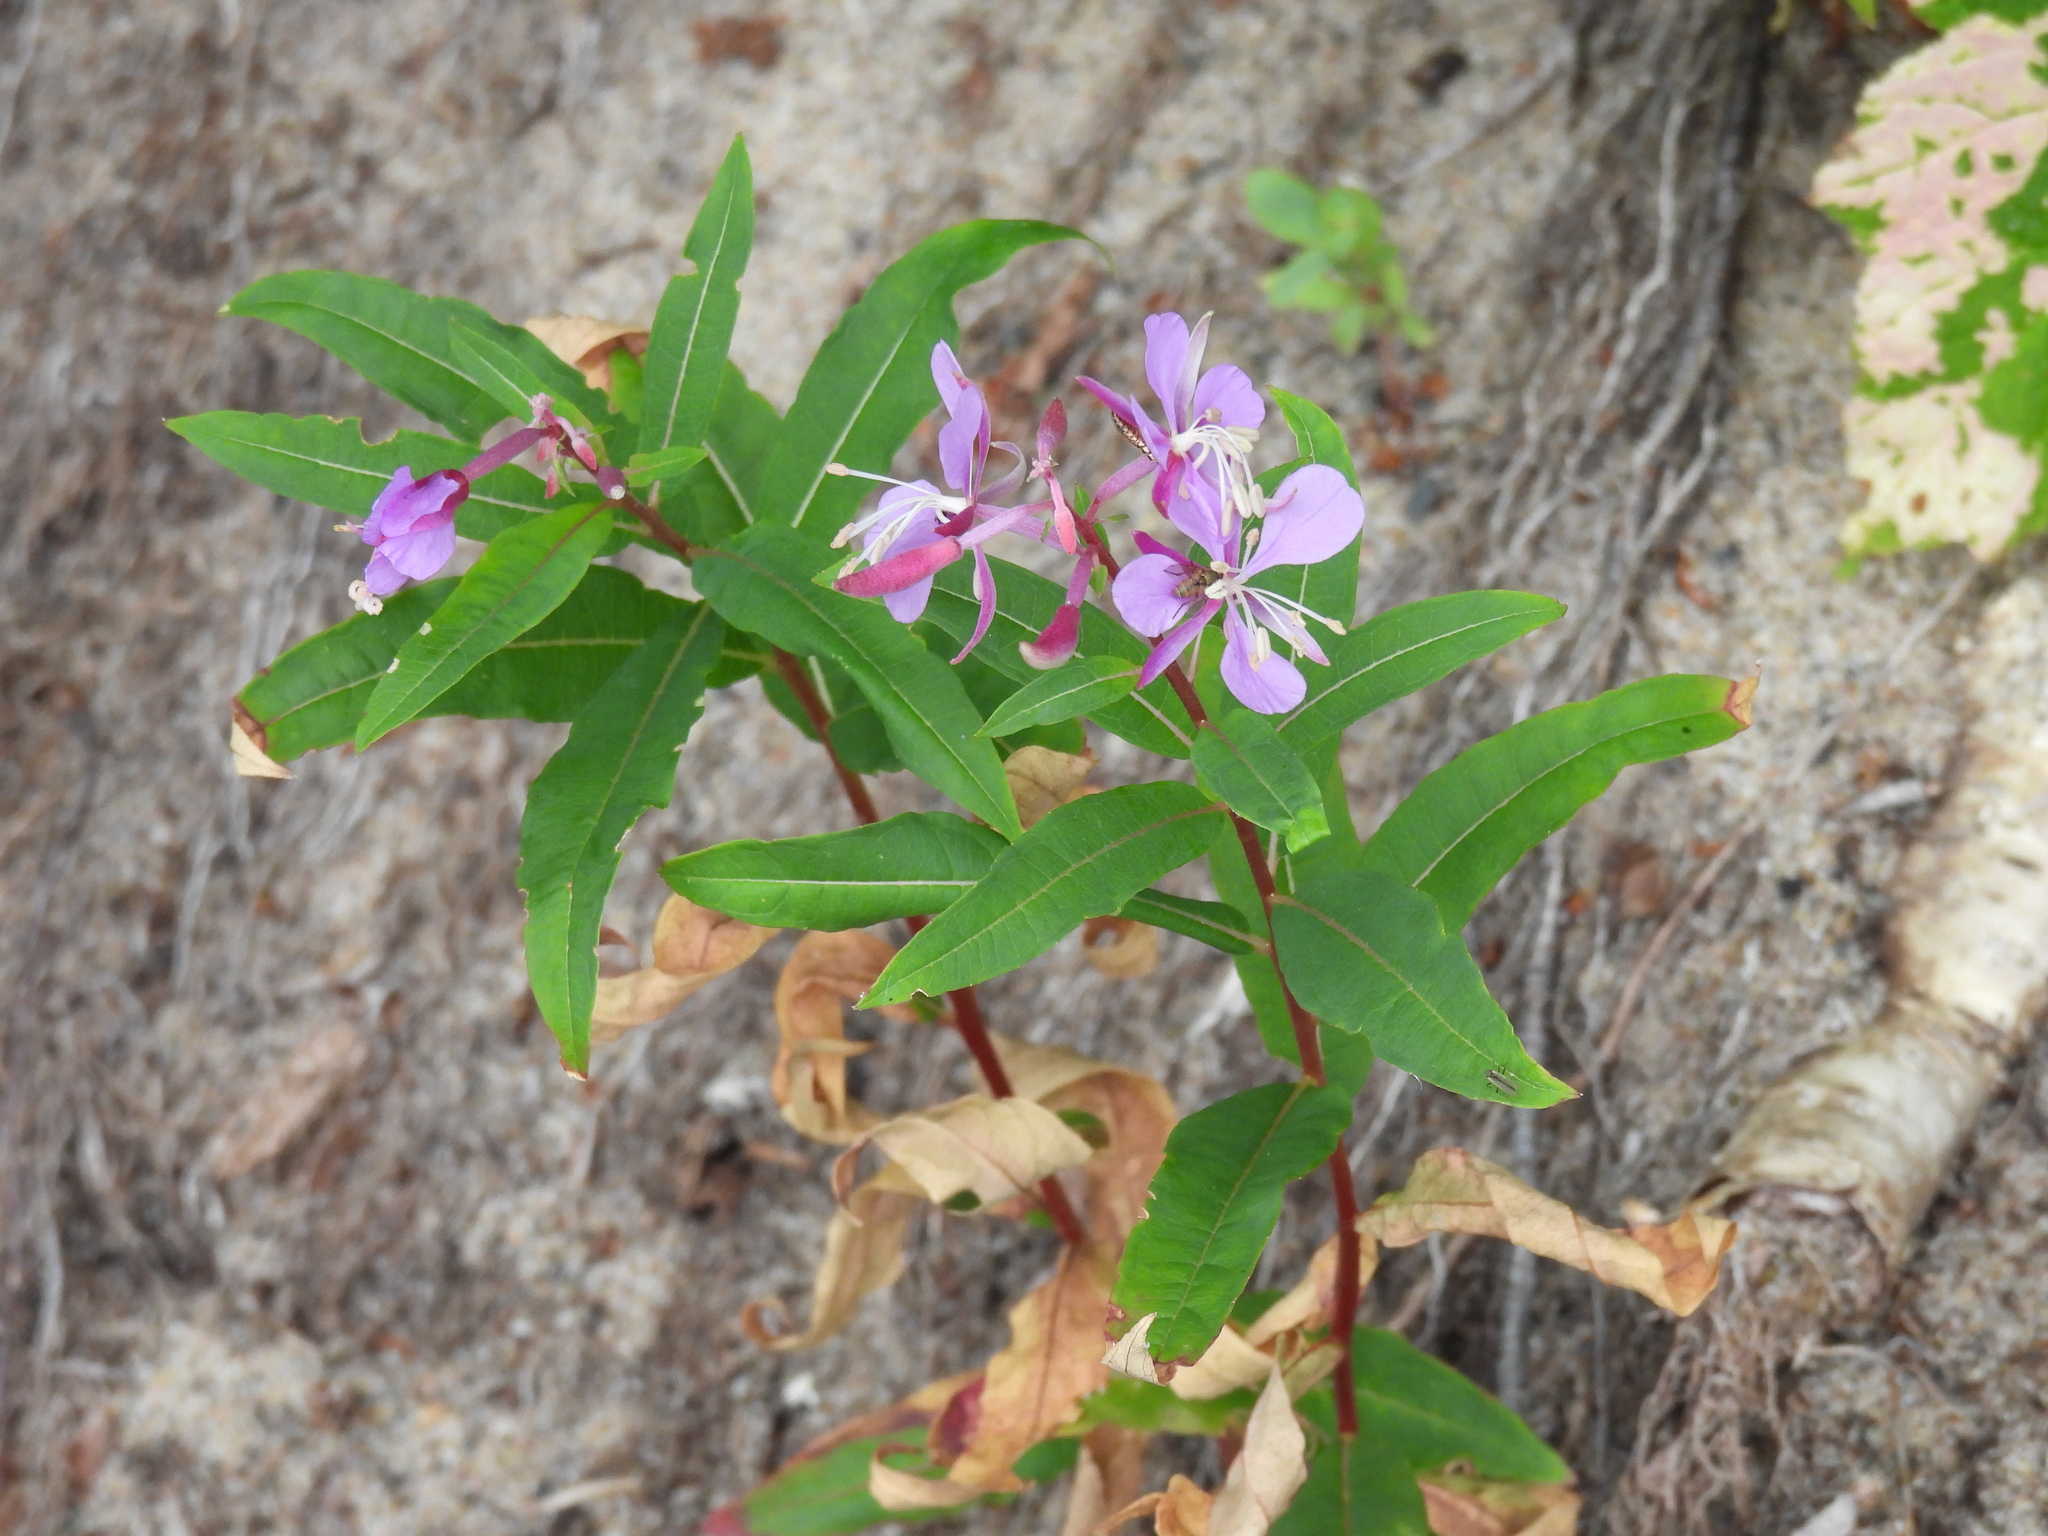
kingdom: Plantae
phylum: Tracheophyta
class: Magnoliopsida
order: Myrtales
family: Onagraceae
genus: Chamaenerion
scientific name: Chamaenerion angustifolium
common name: Fireweed
